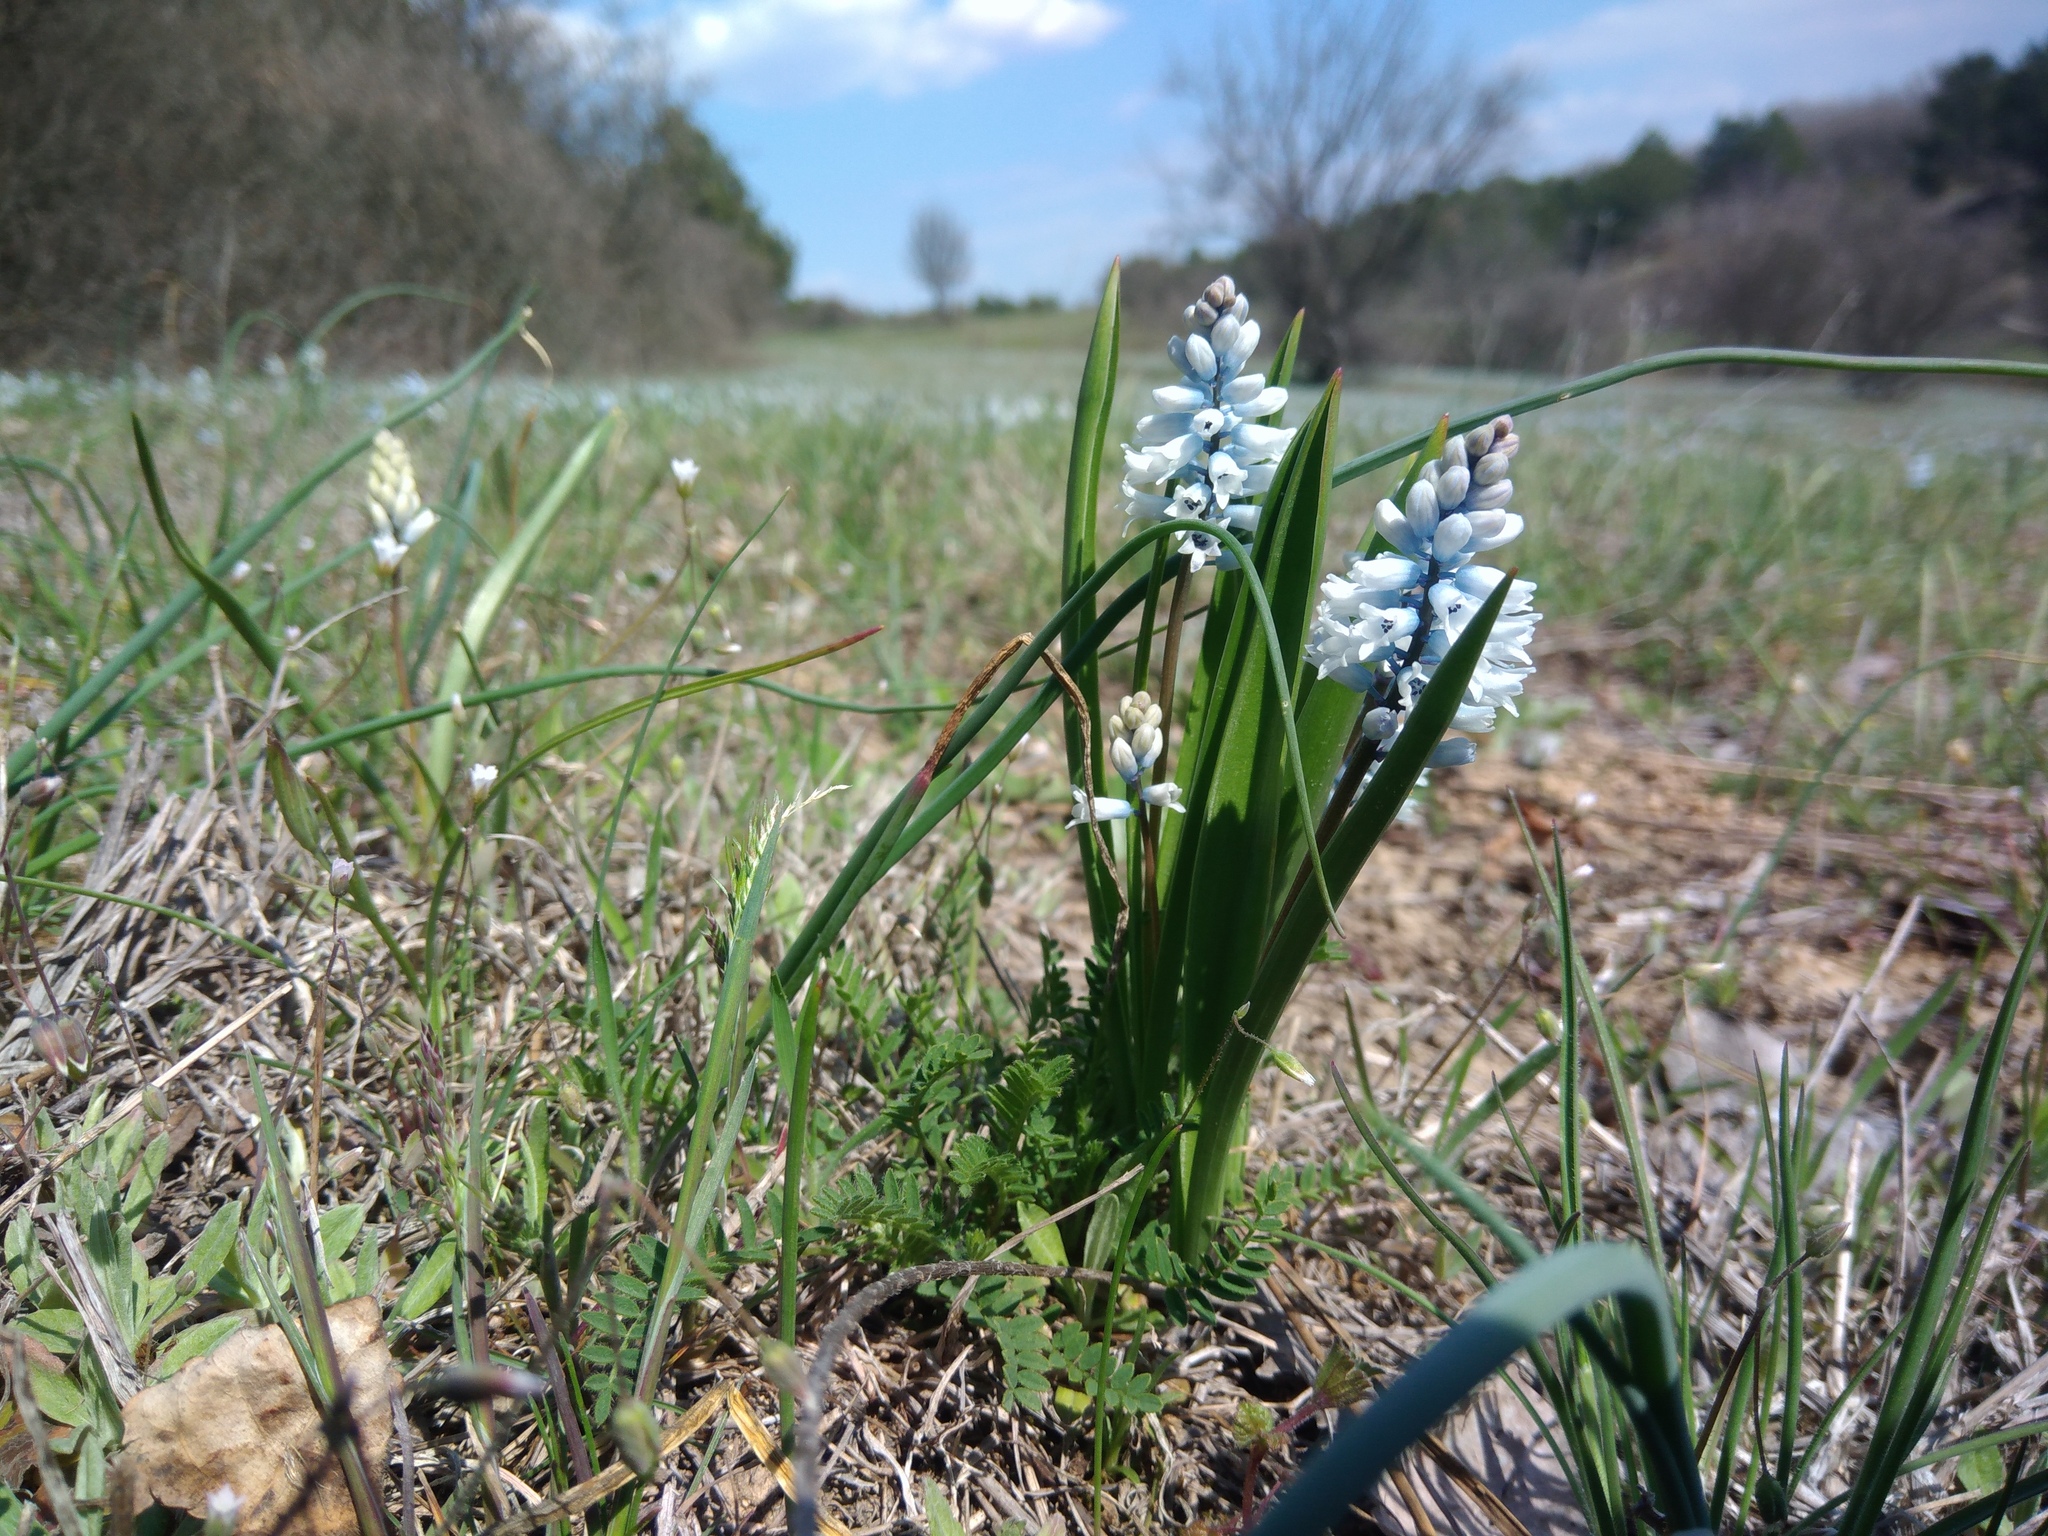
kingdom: Plantae
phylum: Tracheophyta
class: Liliopsida
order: Asparagales
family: Asparagaceae
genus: Hyacinthella
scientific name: Hyacinthella leucophaea
